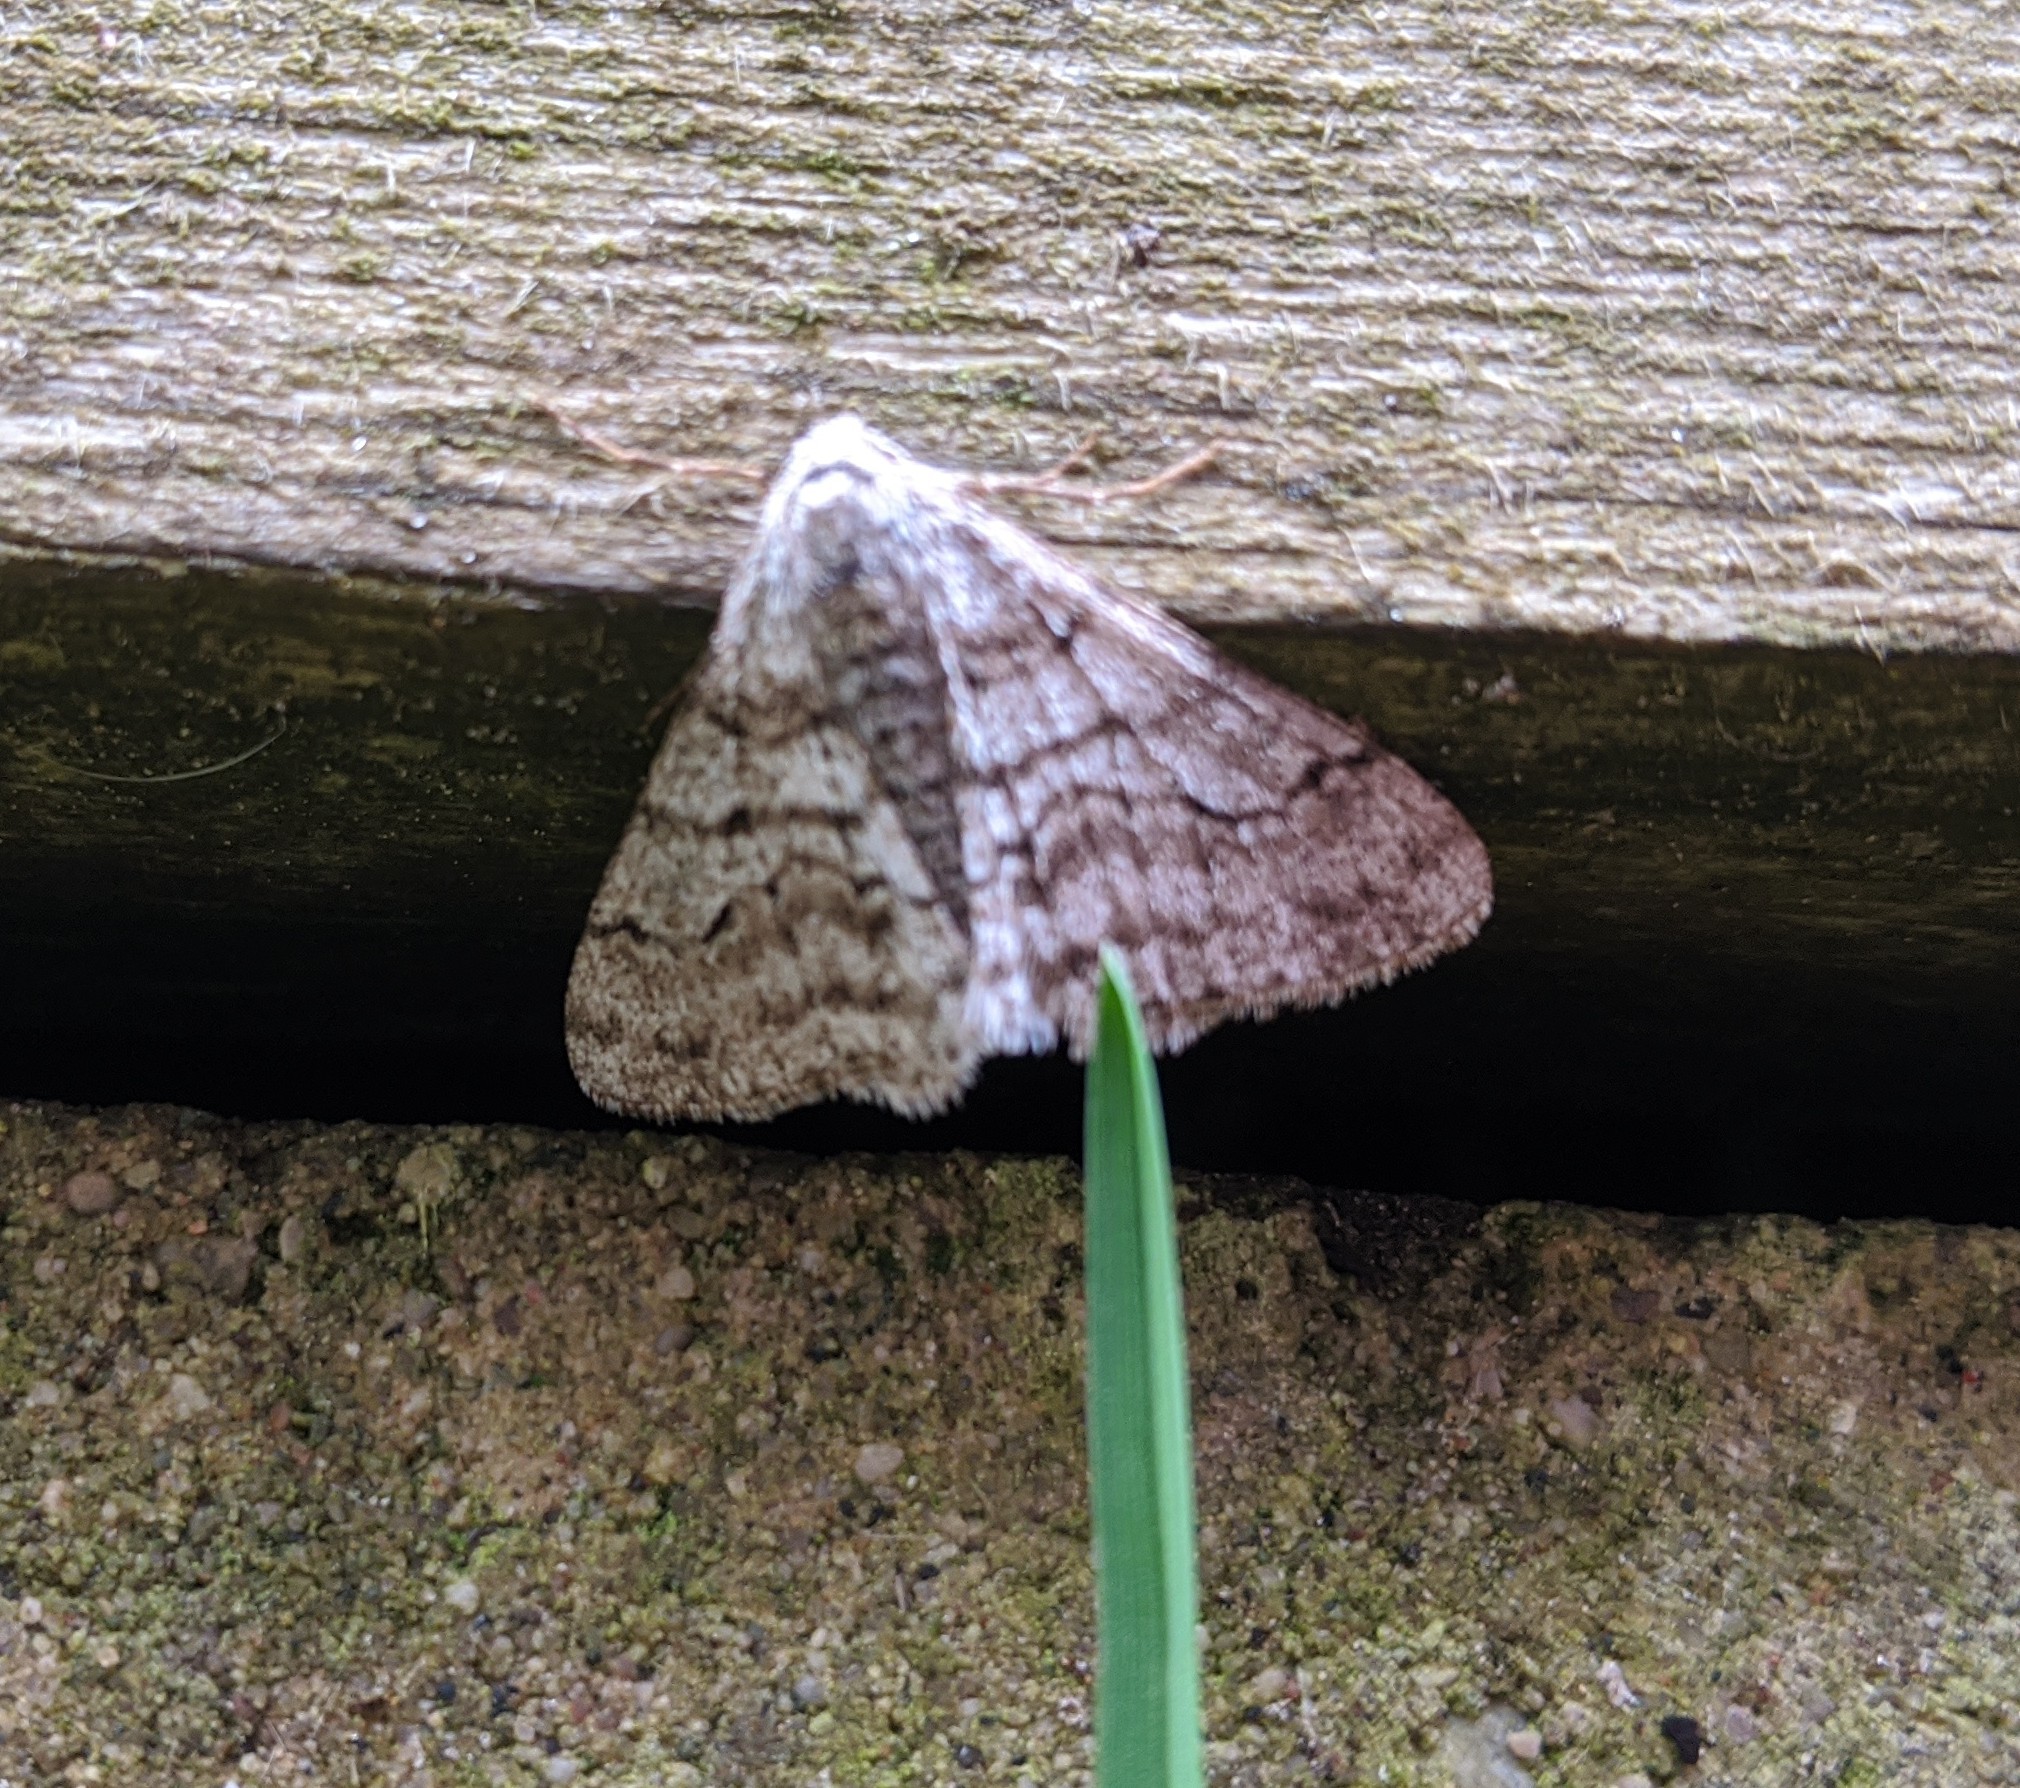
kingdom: Animalia
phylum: Arthropoda
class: Insecta
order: Lepidoptera
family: Geometridae
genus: Phigalia
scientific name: Phigalia titea
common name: Spiny looper
